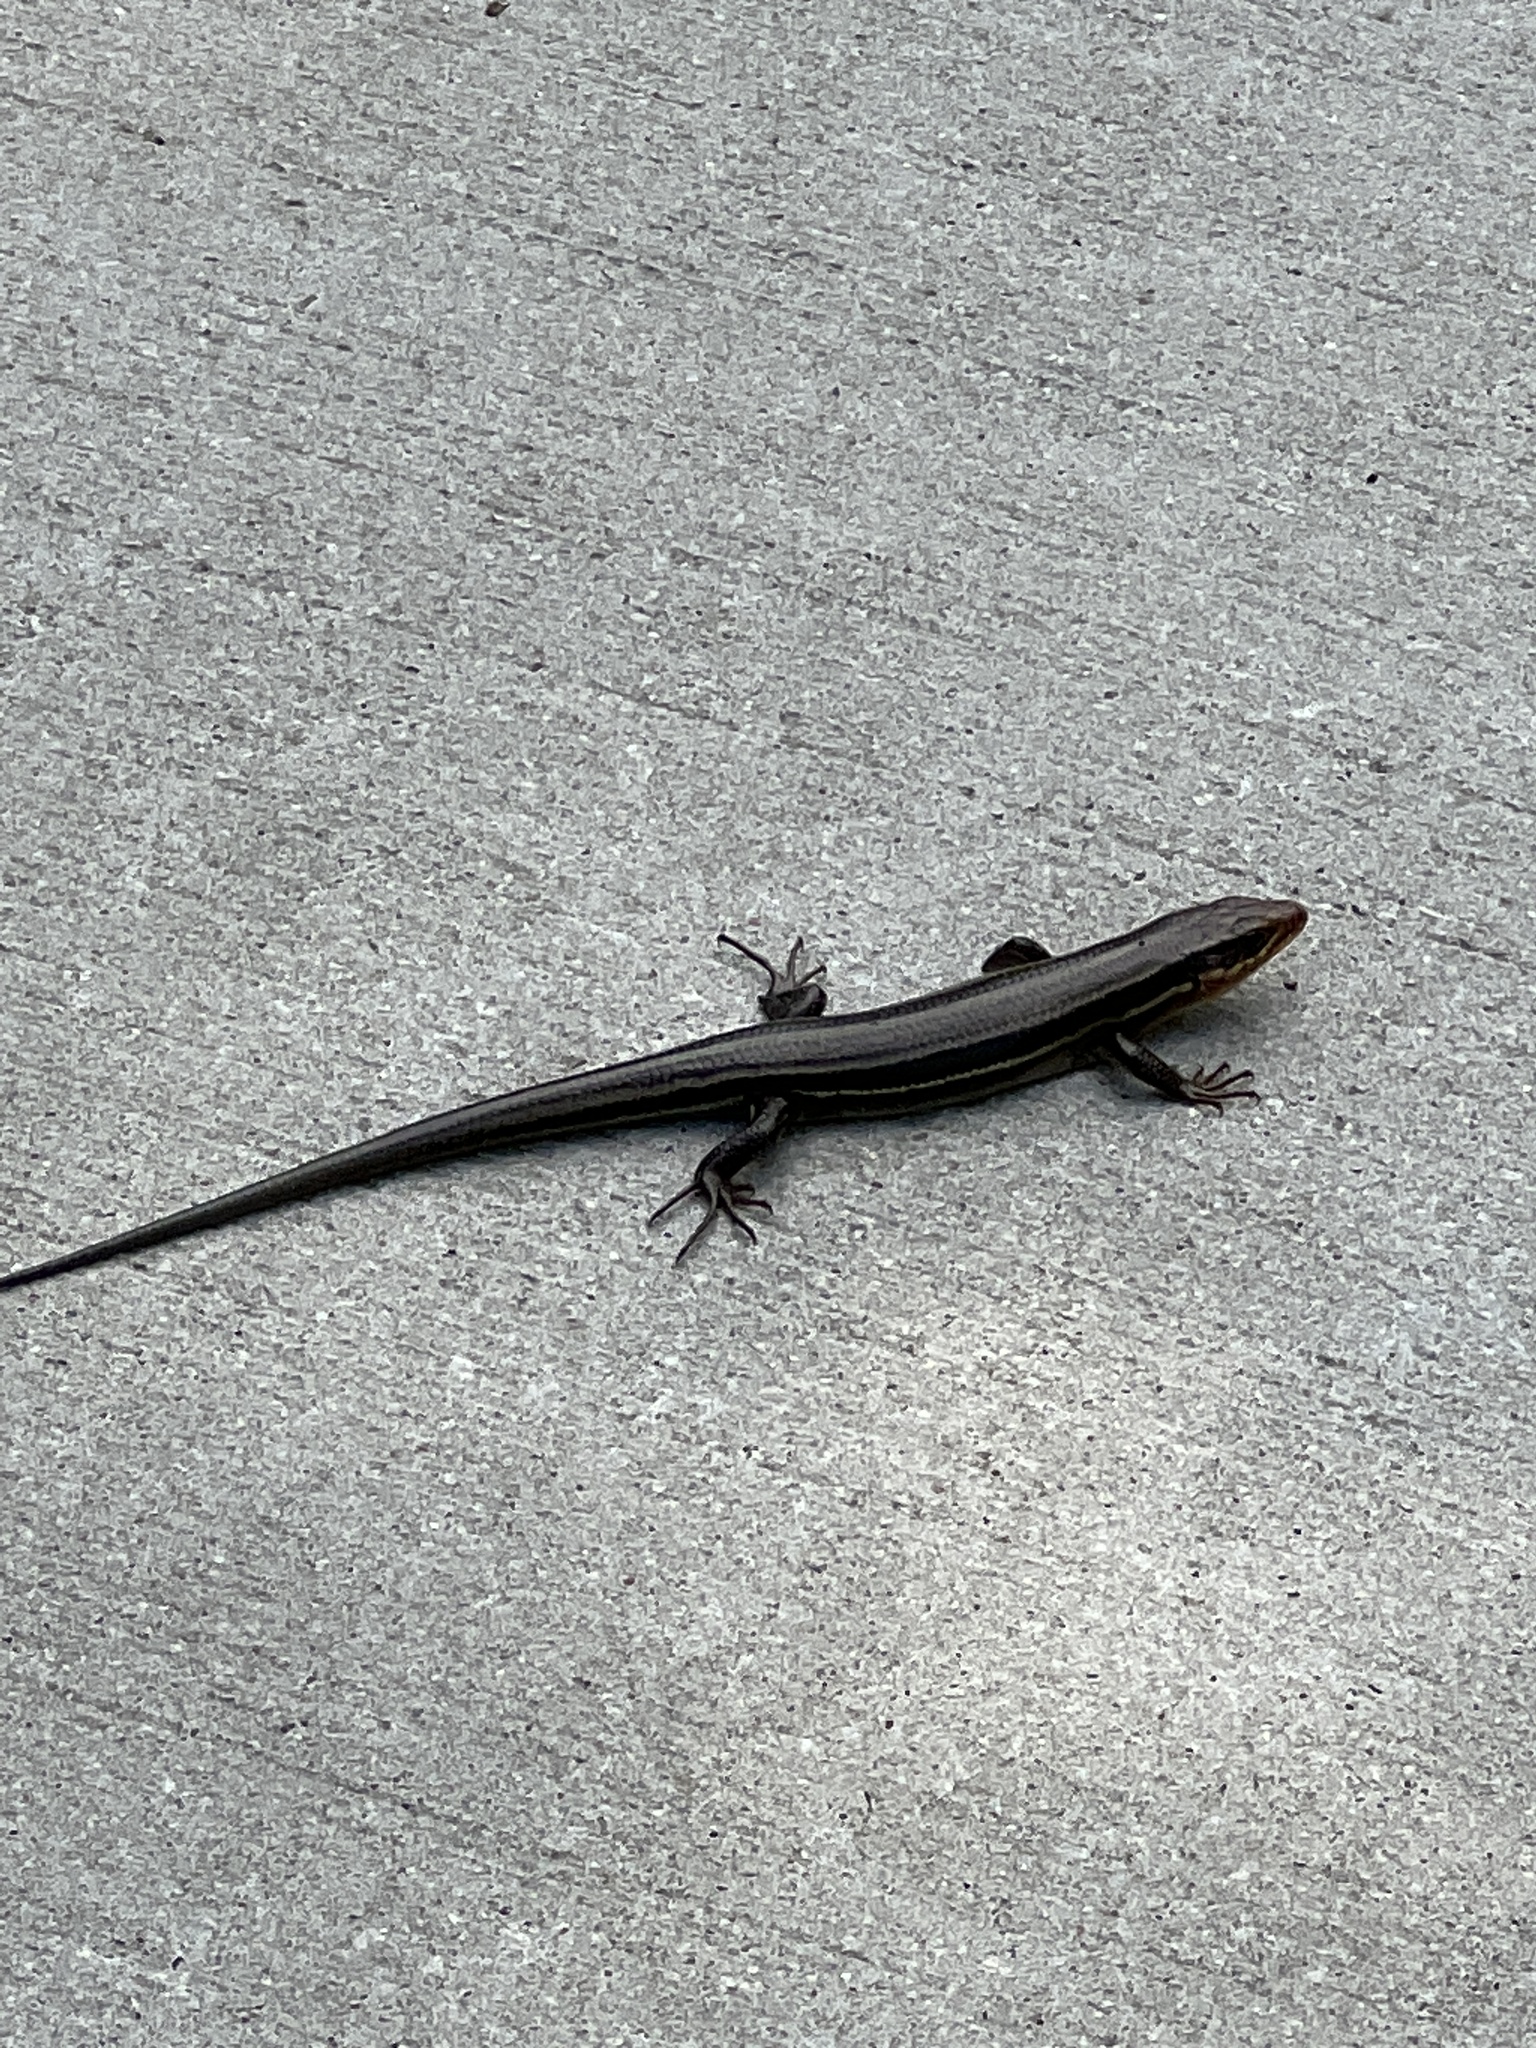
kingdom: Animalia
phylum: Chordata
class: Squamata
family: Scincidae
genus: Plestiodon
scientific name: Plestiodon fasciatus
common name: Five-lined skink
